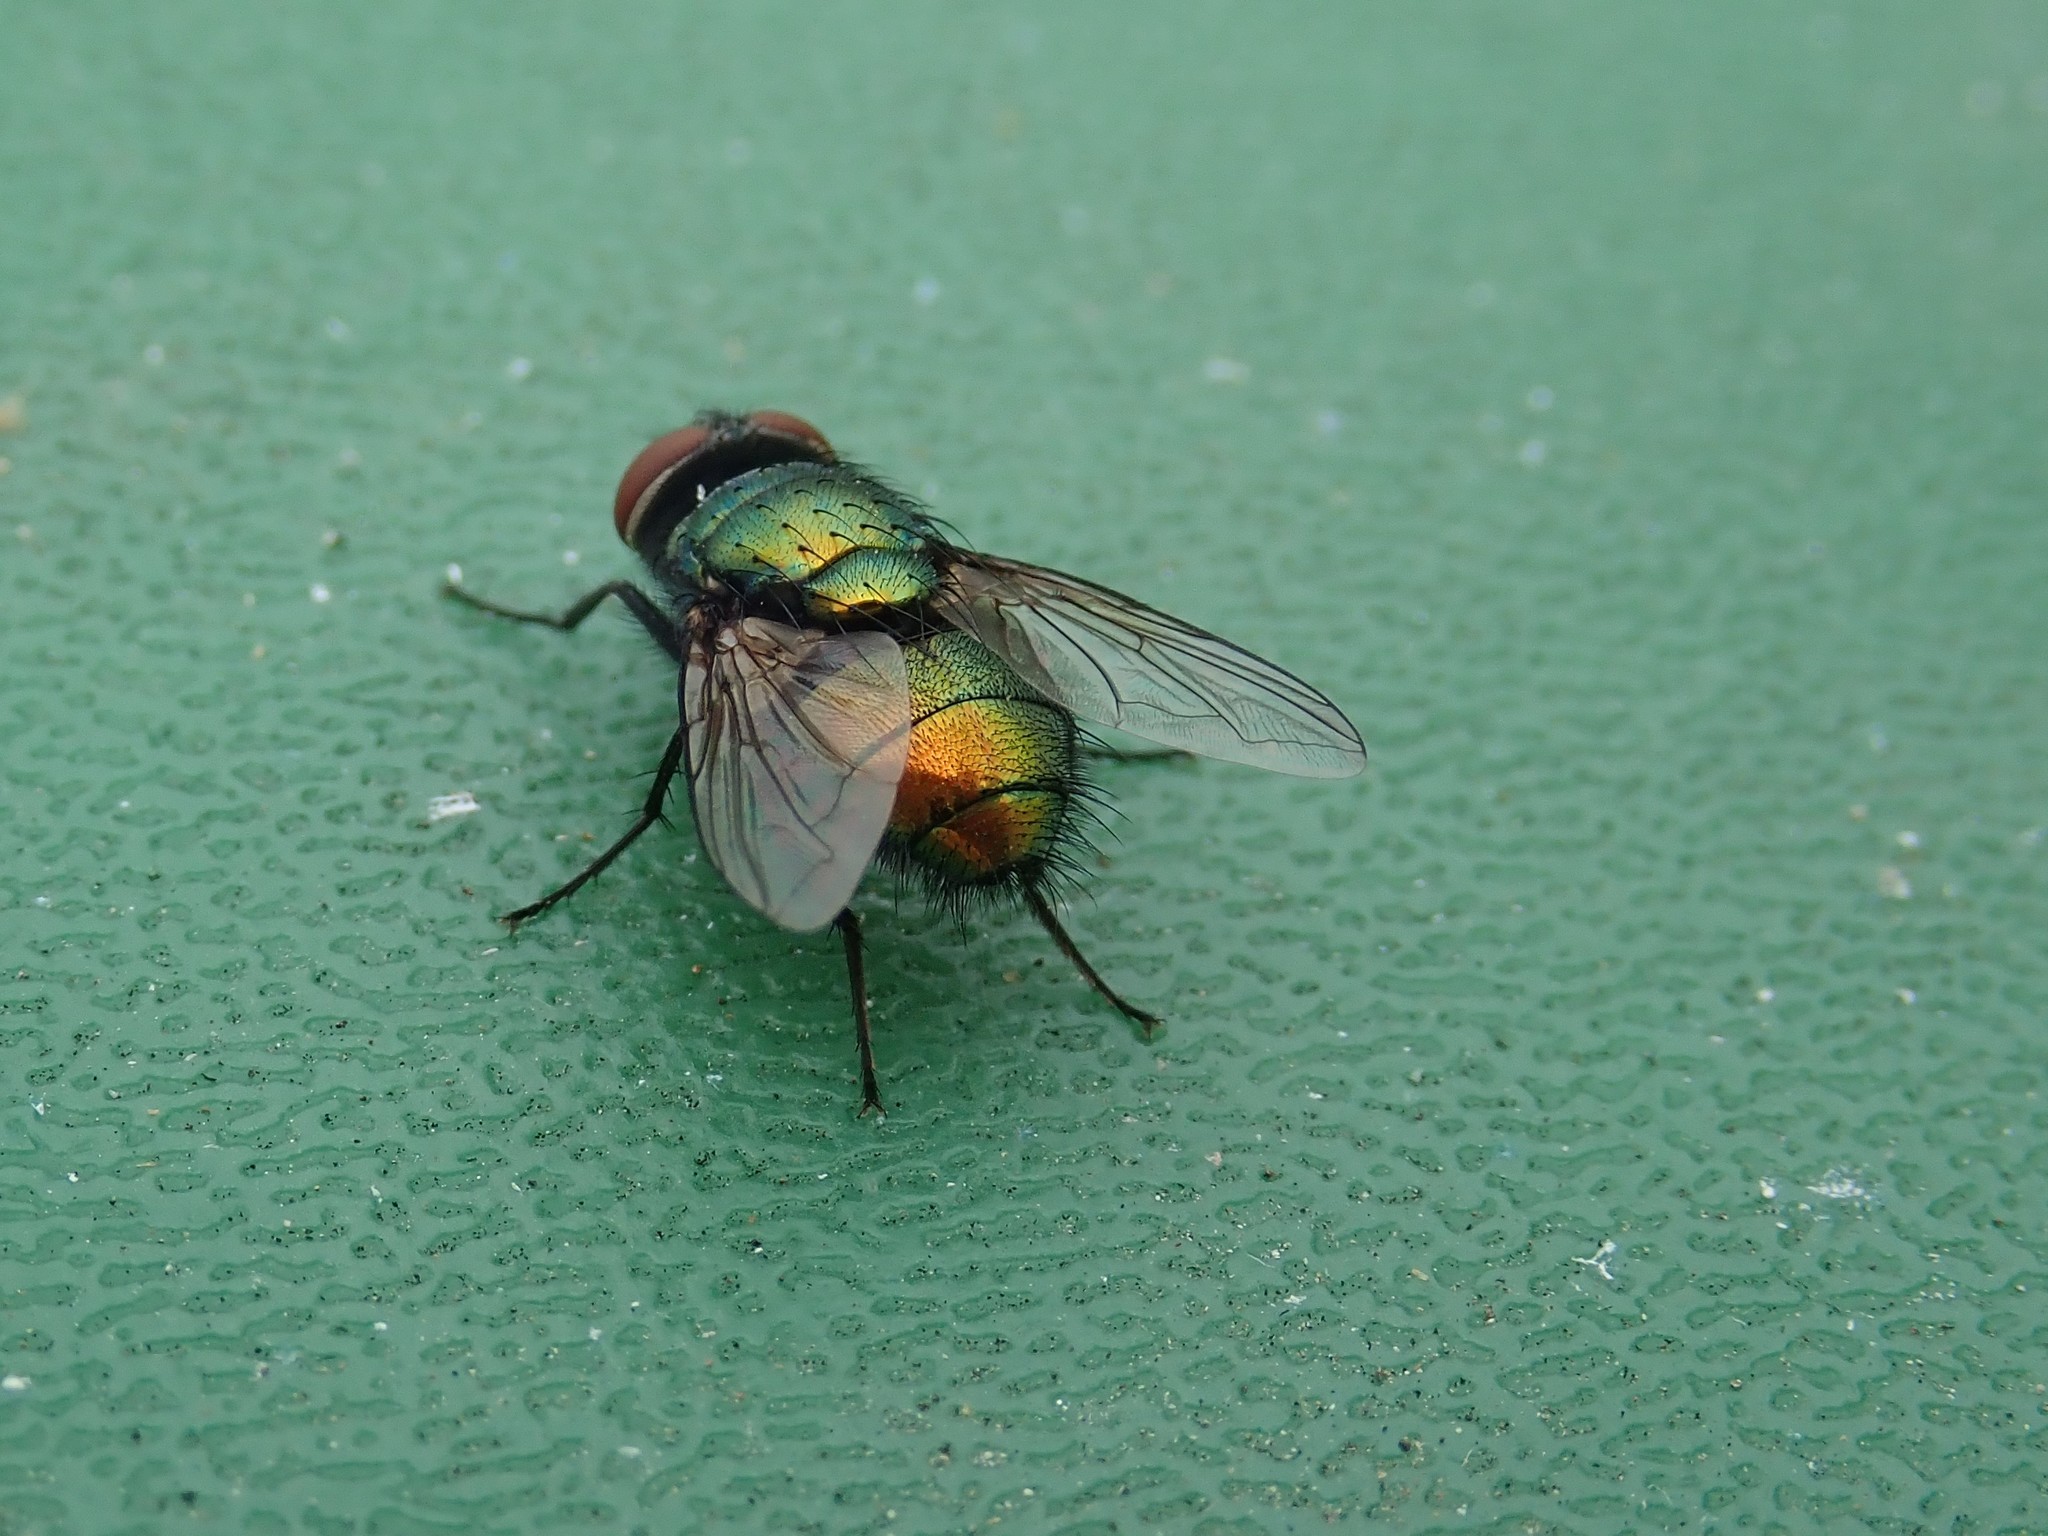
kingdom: Animalia
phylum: Arthropoda
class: Insecta
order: Diptera
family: Calliphoridae
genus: Lucilia
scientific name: Lucilia sericata
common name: Blow fly
